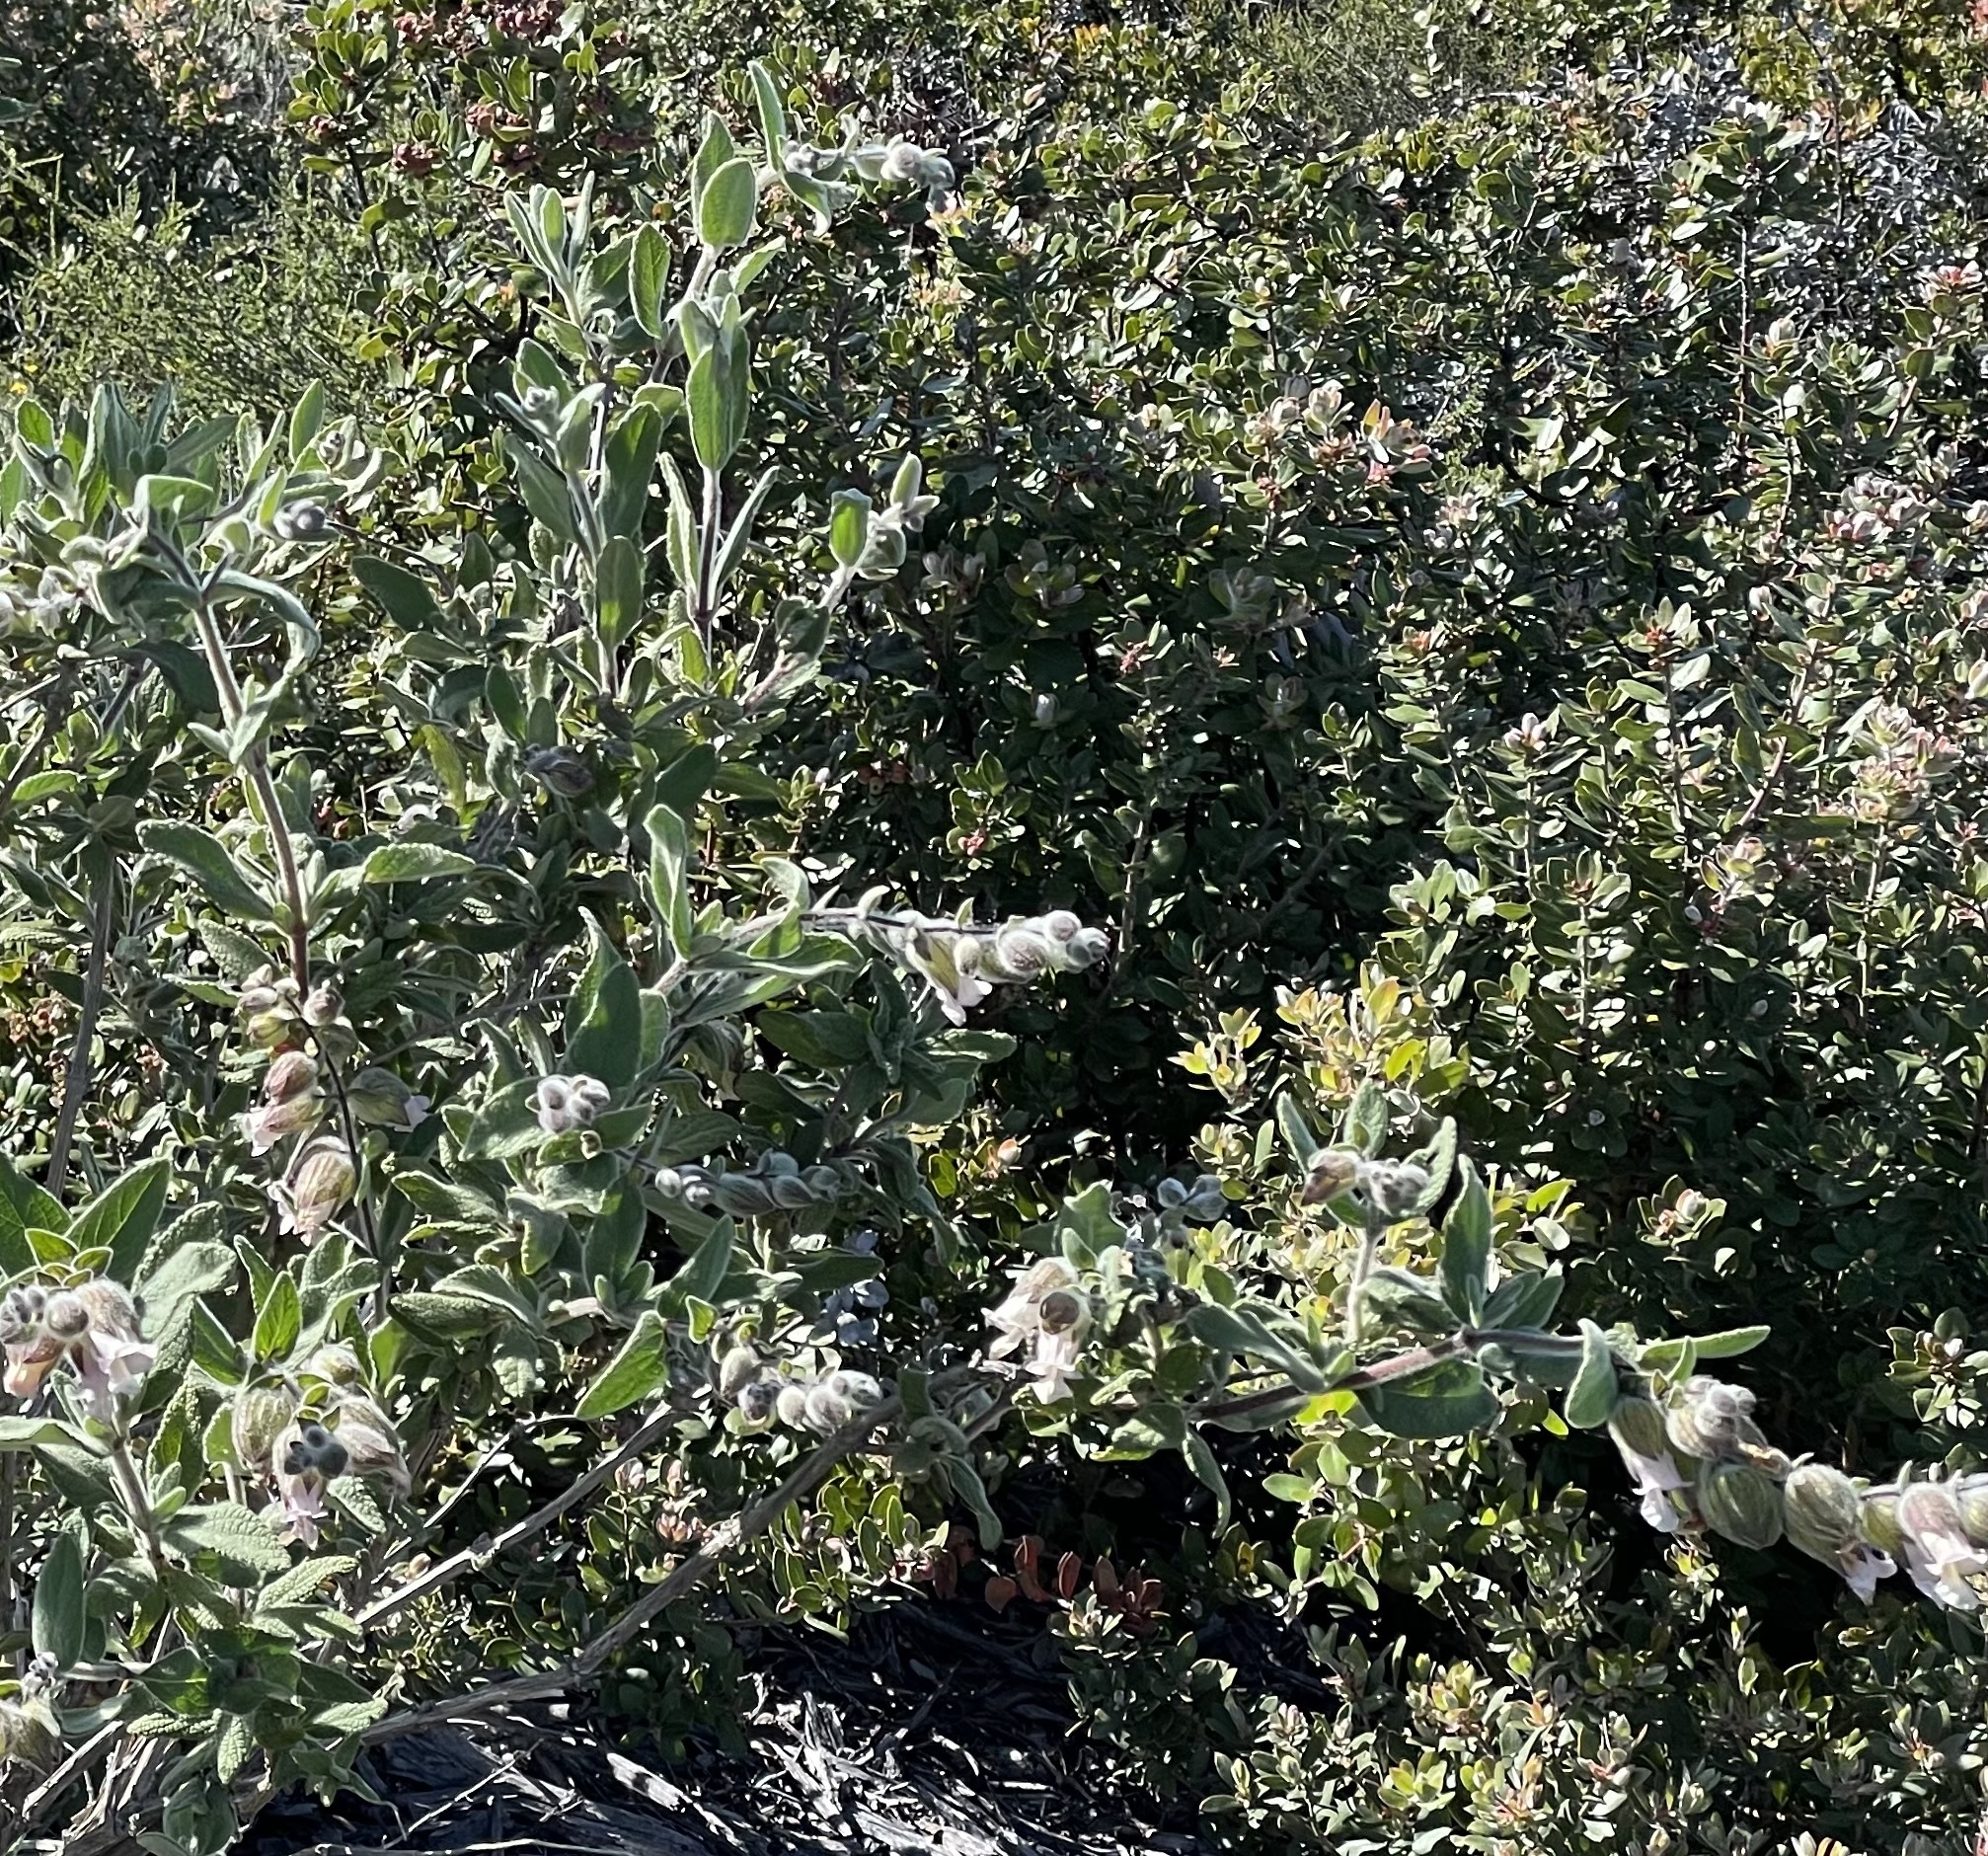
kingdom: Plantae
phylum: Tracheophyta
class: Magnoliopsida
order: Lamiales
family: Lamiaceae
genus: Lepechinia
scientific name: Lepechinia calycina
